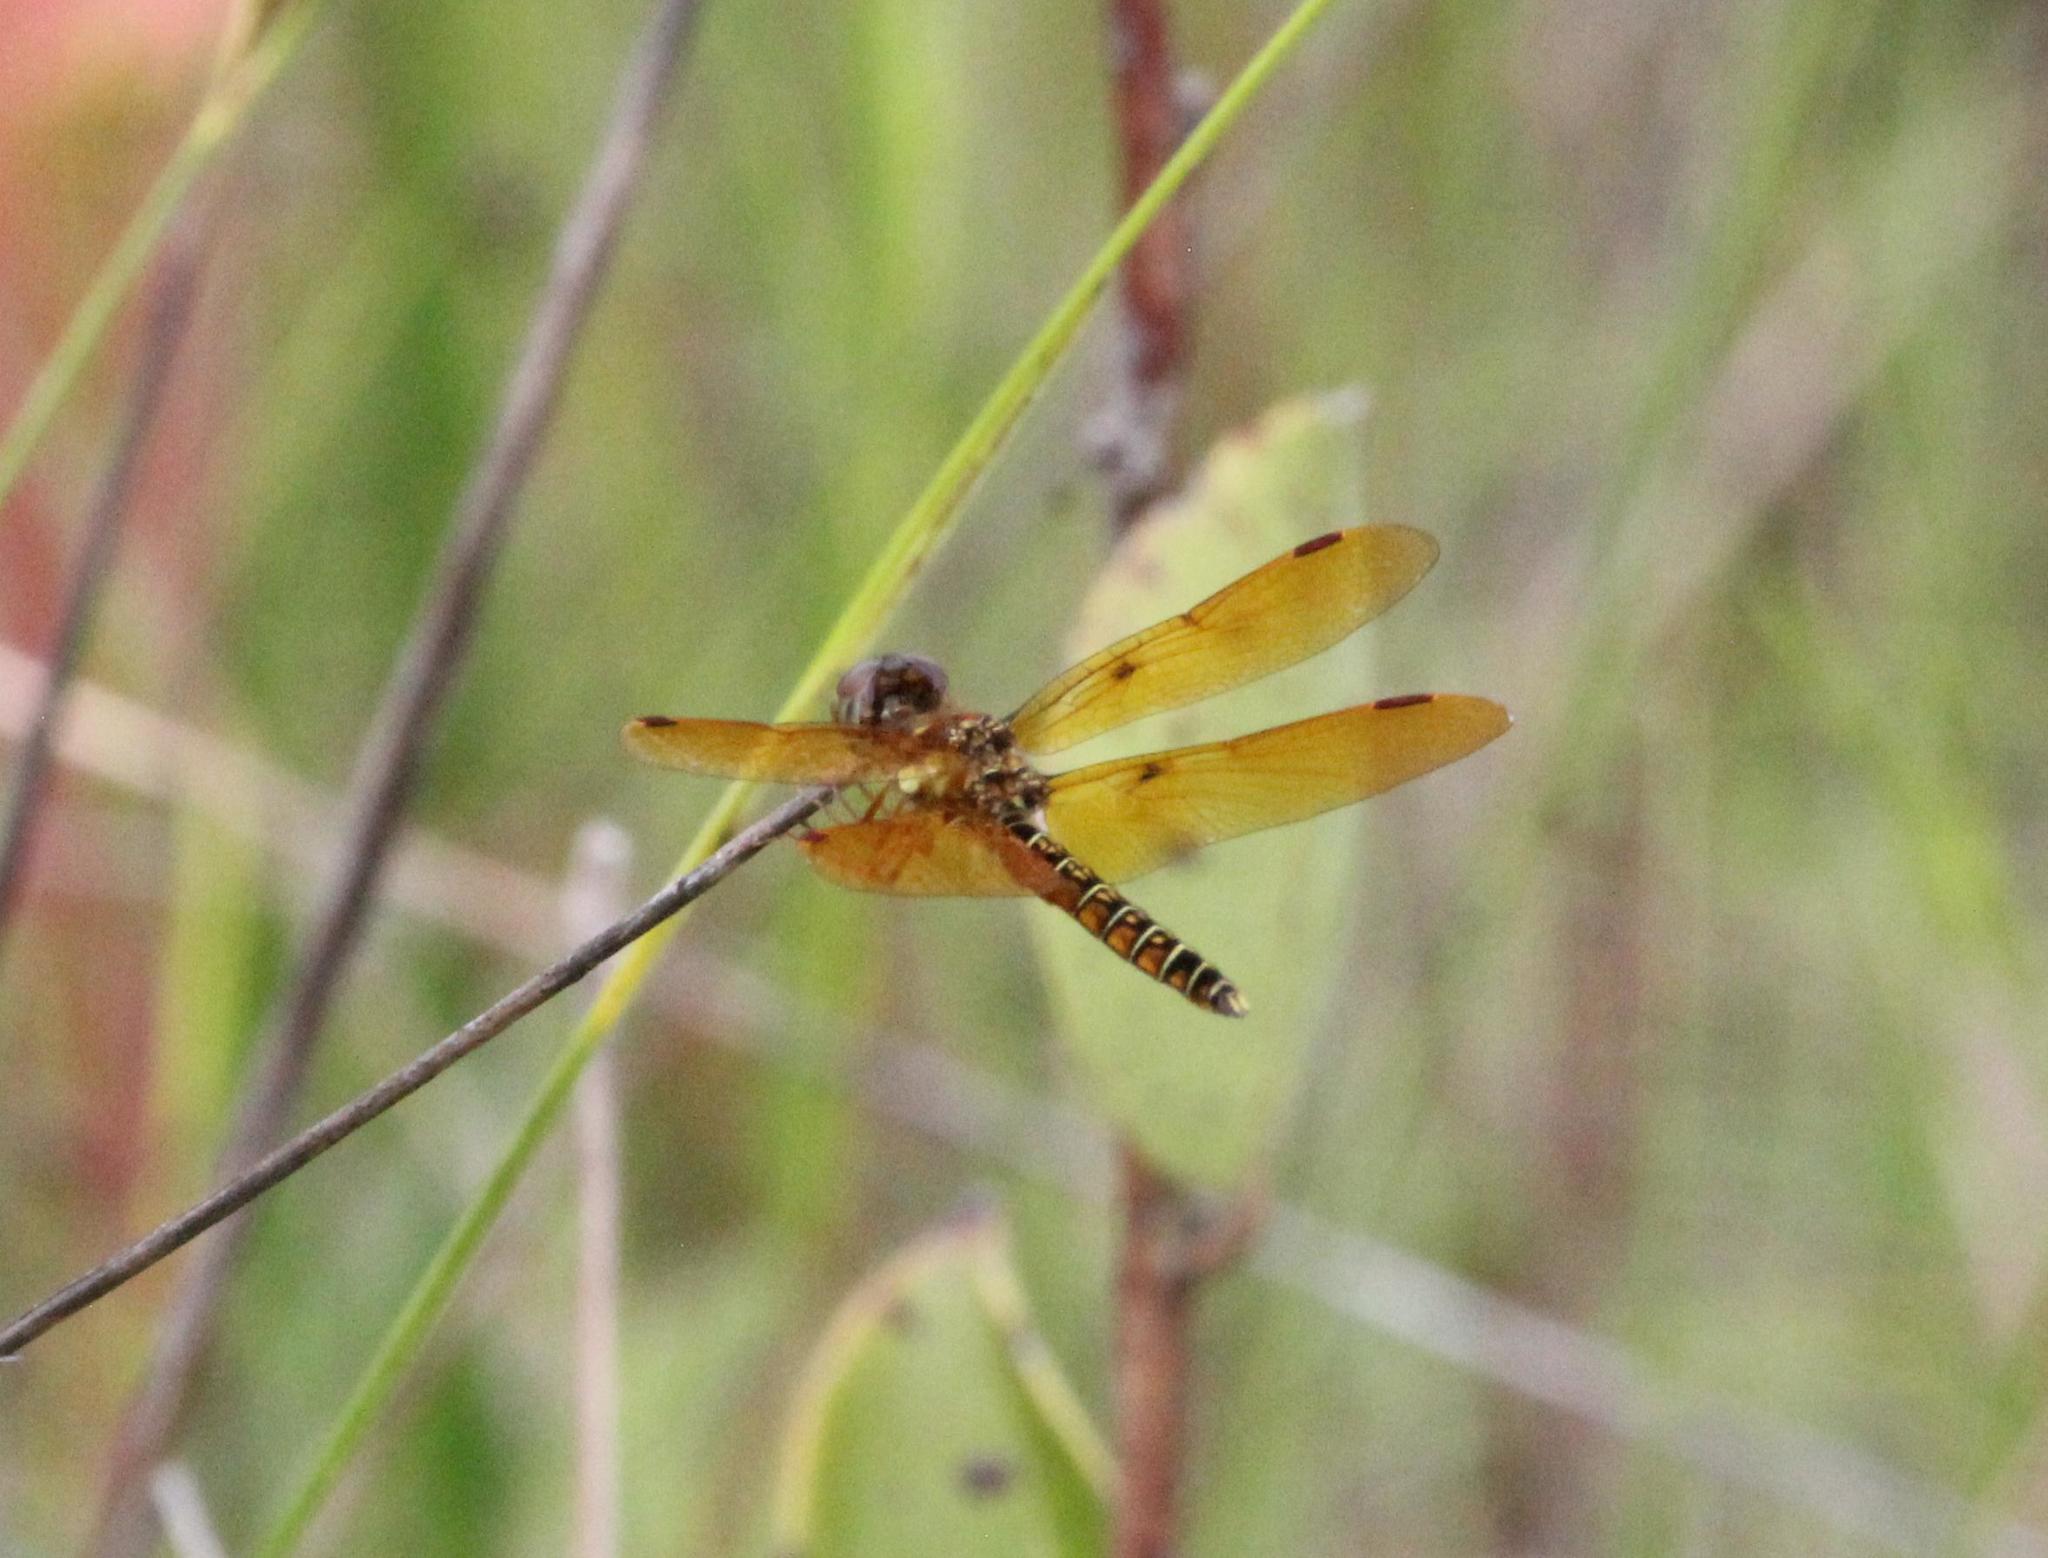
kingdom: Animalia
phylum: Arthropoda
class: Insecta
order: Odonata
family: Libellulidae
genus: Perithemis
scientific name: Perithemis tenera
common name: Eastern amberwing
